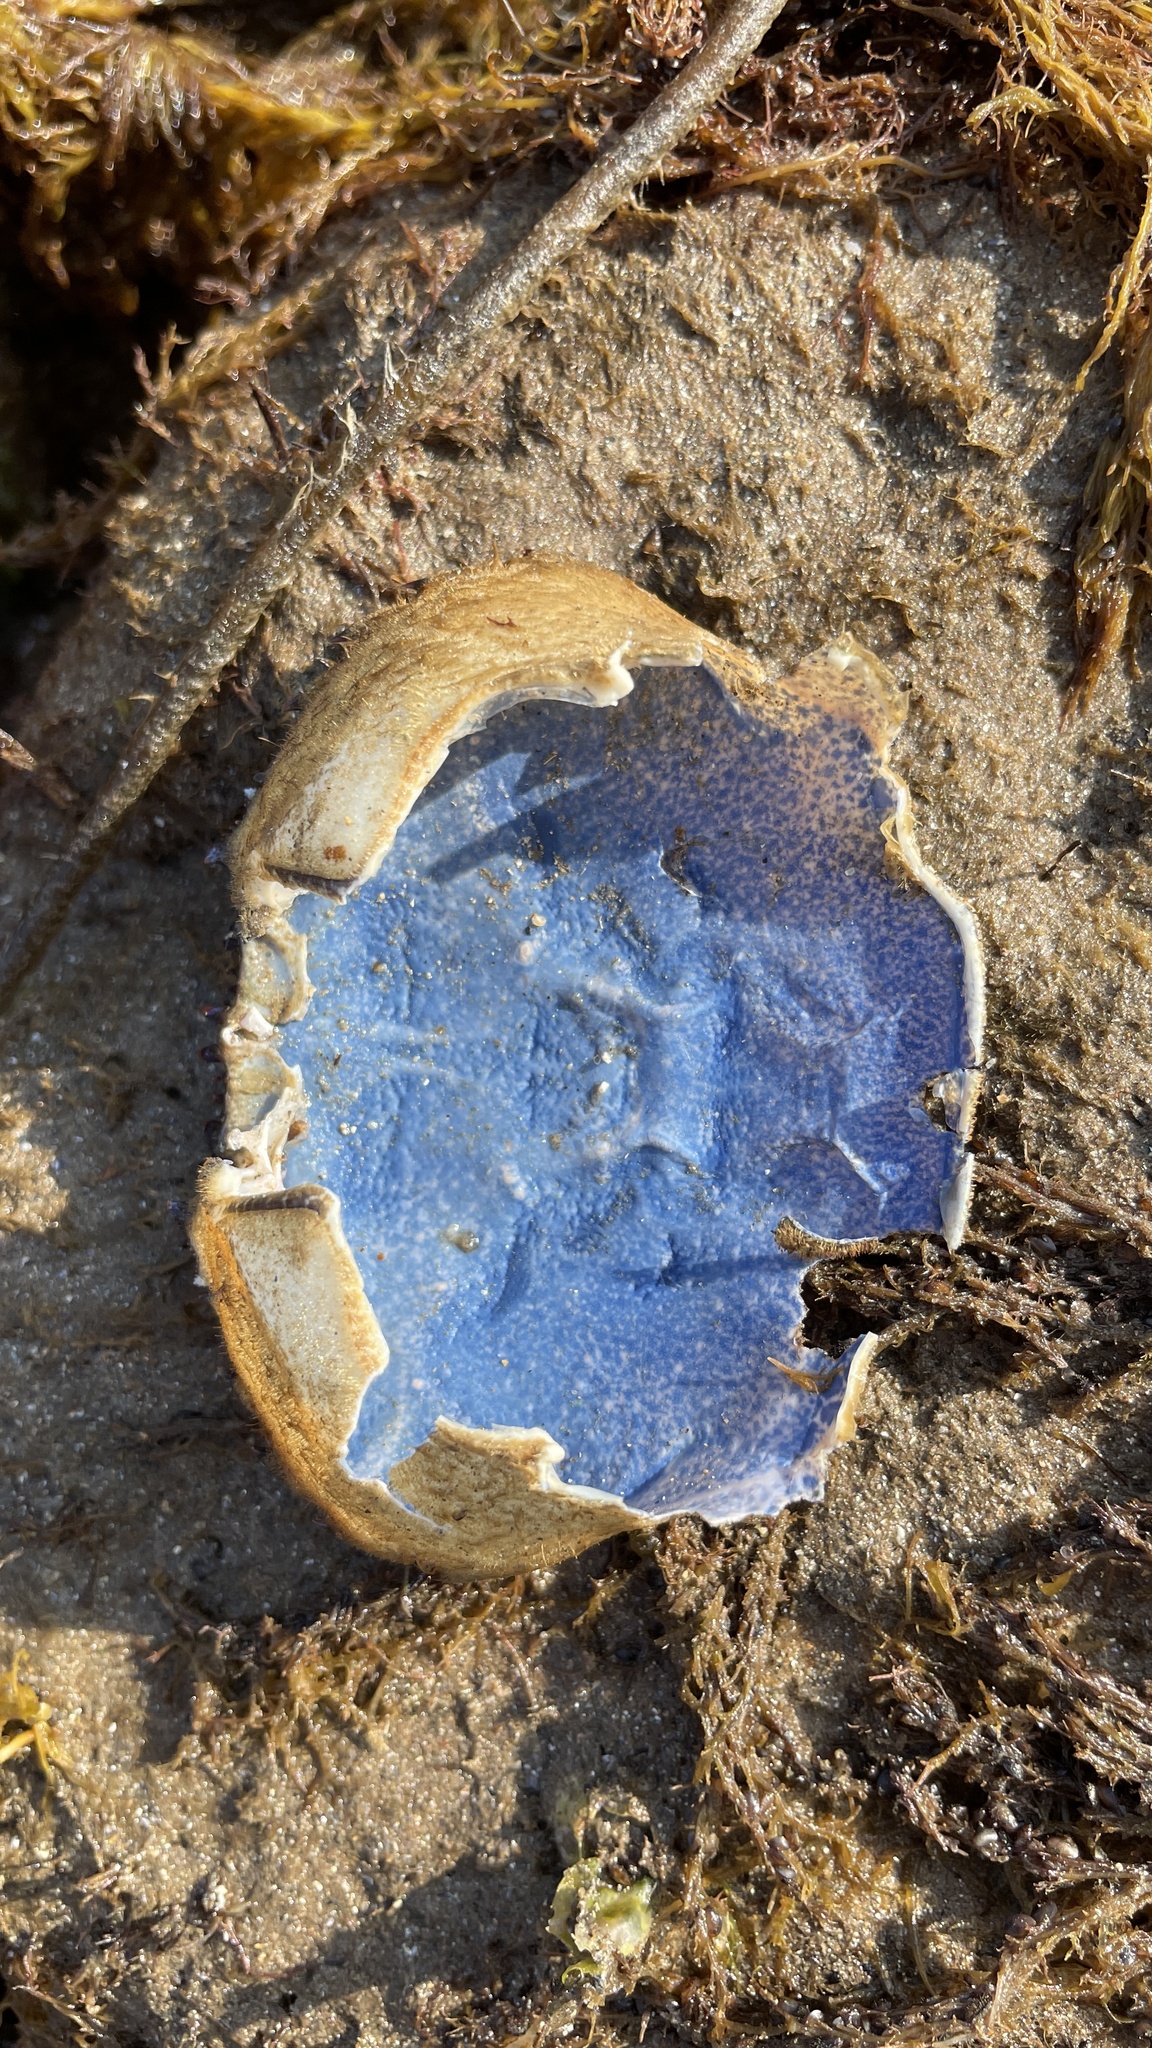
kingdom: Animalia
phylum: Arthropoda
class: Malacostraca
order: Decapoda
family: Polybiidae
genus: Necora
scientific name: Necora puber
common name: Velvet swimming crab
